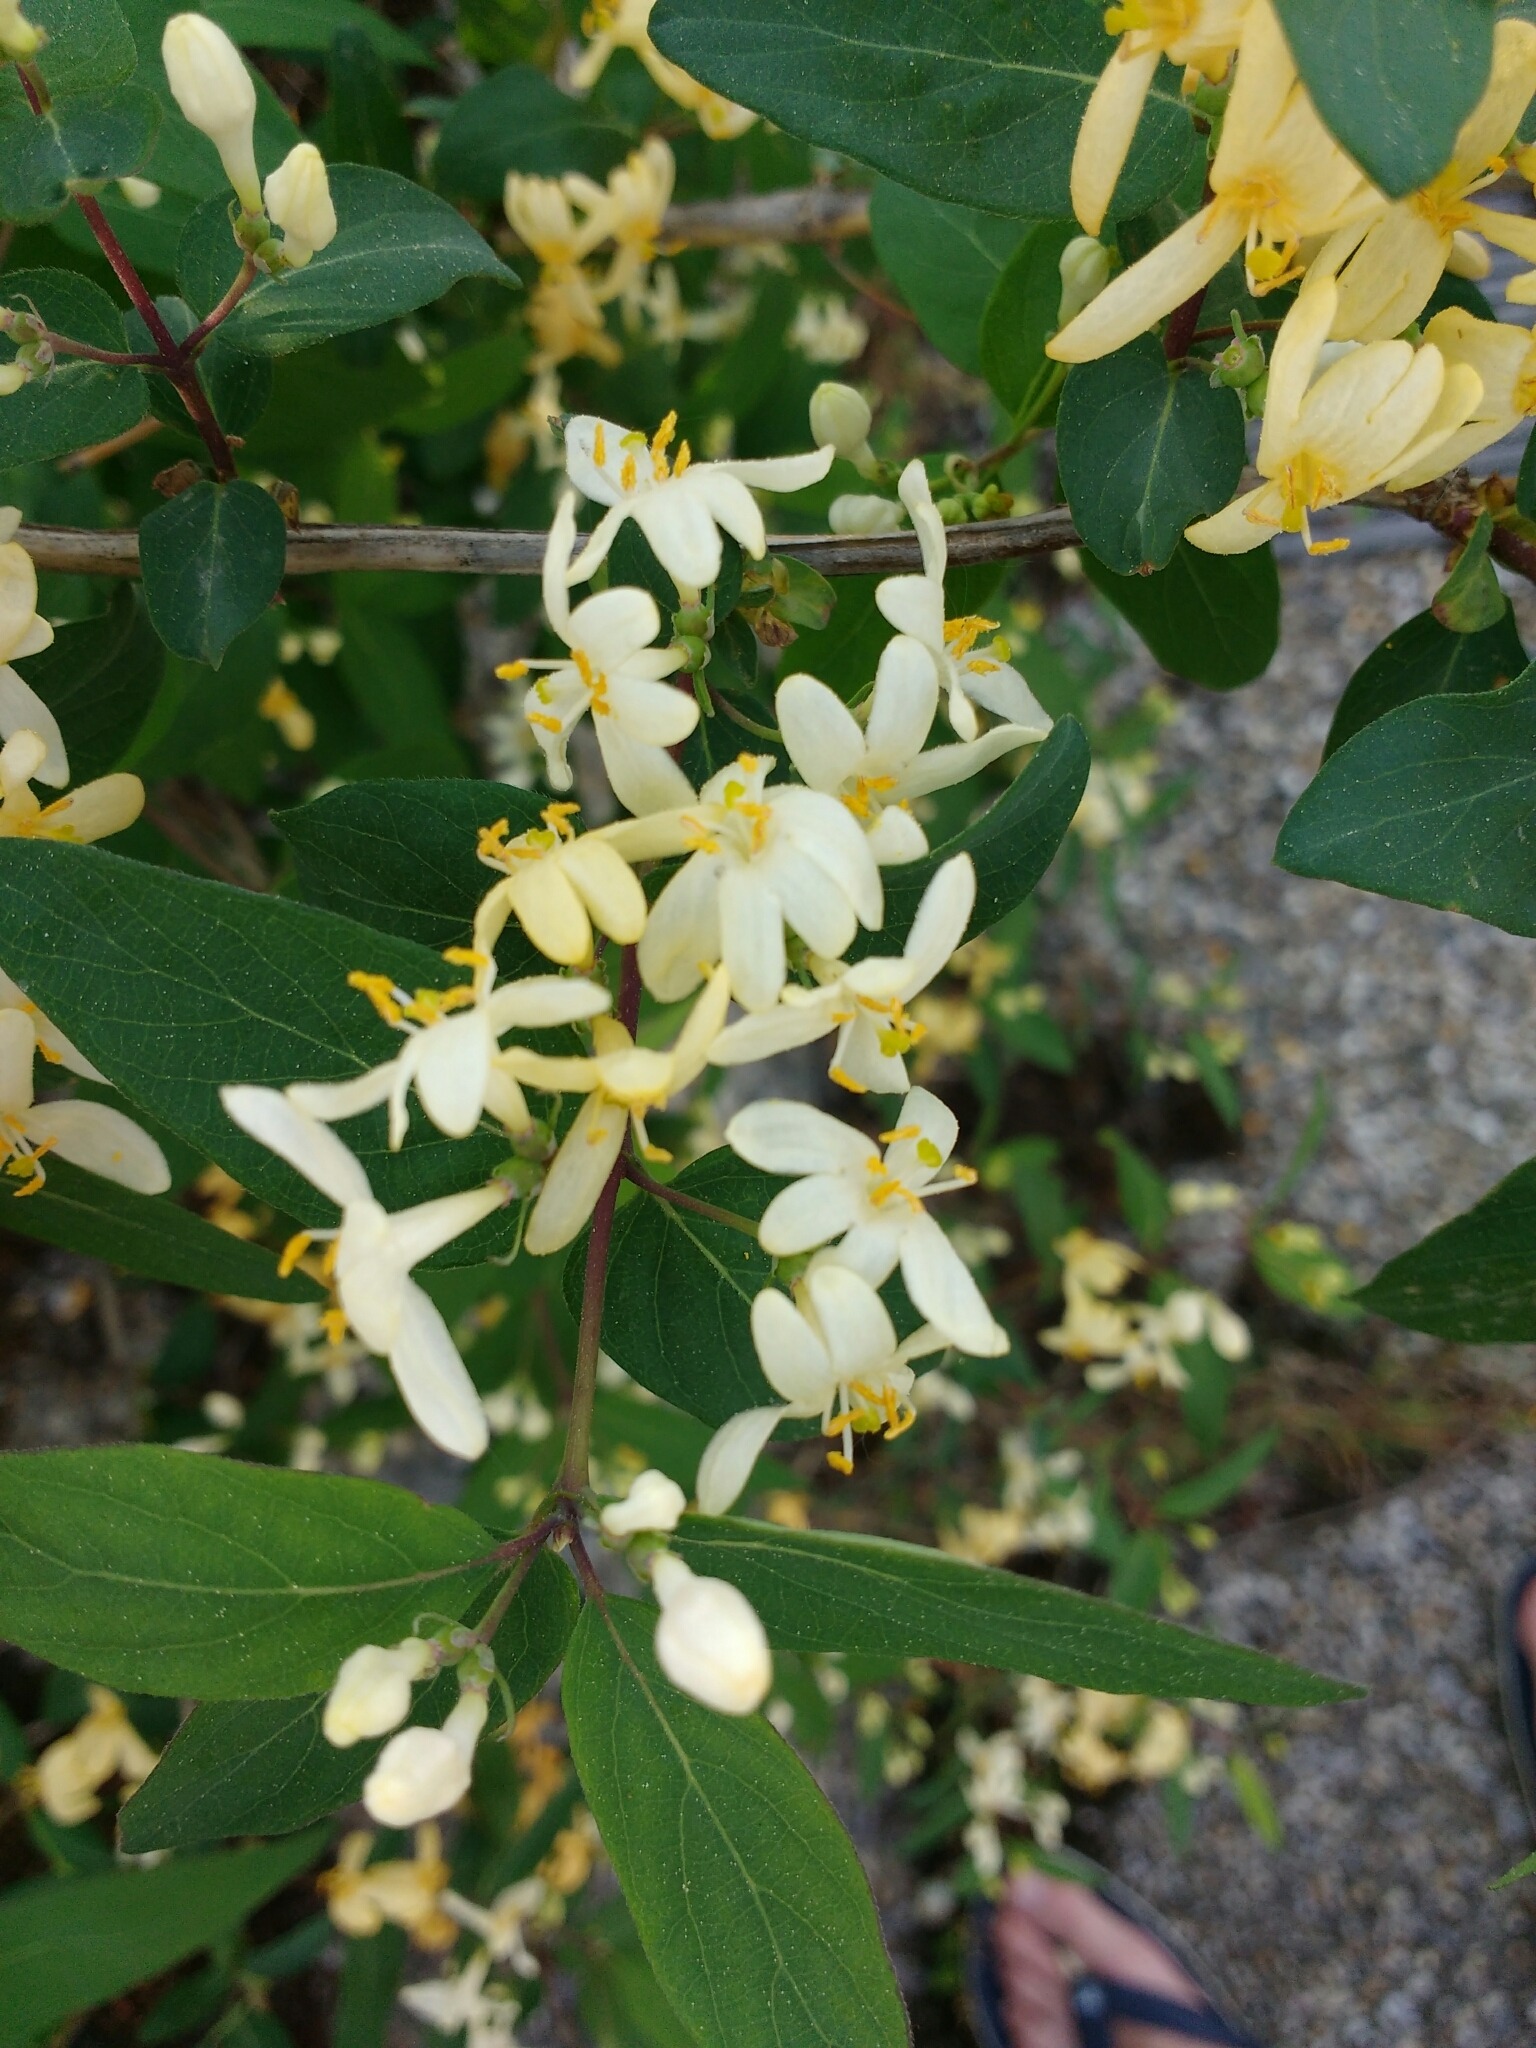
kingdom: Plantae
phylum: Tracheophyta
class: Magnoliopsida
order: Dipsacales
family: Caprifoliaceae
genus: Lonicera
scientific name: Lonicera tatarica
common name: Tatarian honeysuckle
